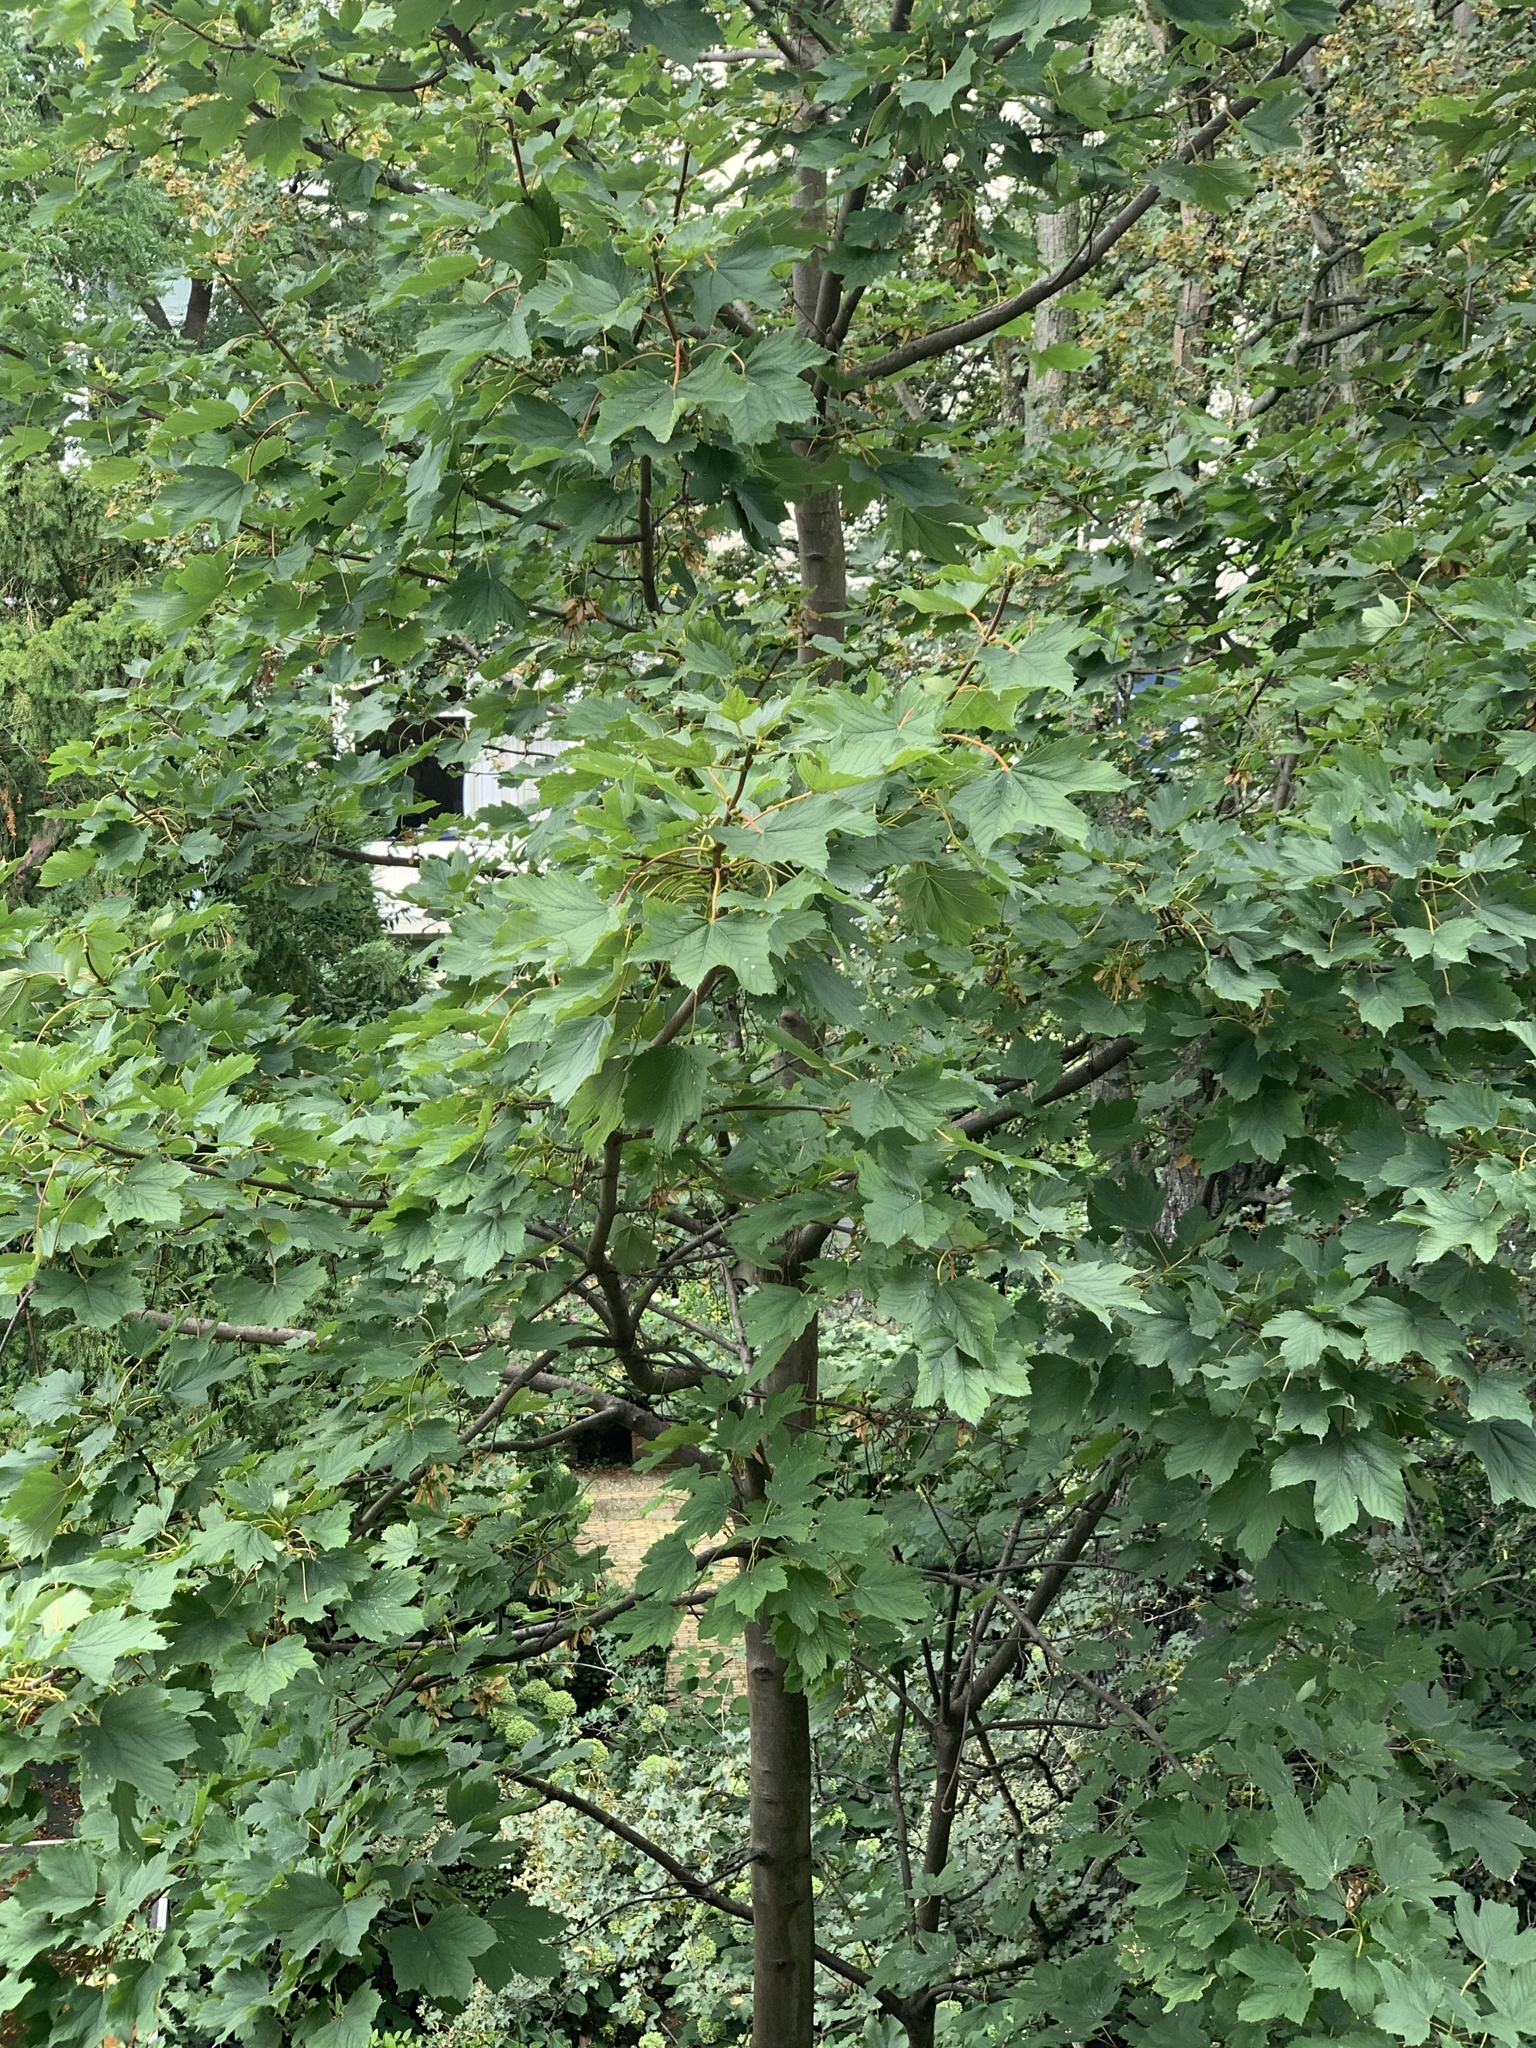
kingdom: Plantae
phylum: Tracheophyta
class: Magnoliopsida
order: Sapindales
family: Sapindaceae
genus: Acer
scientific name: Acer pseudoplatanus
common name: Sycamore
